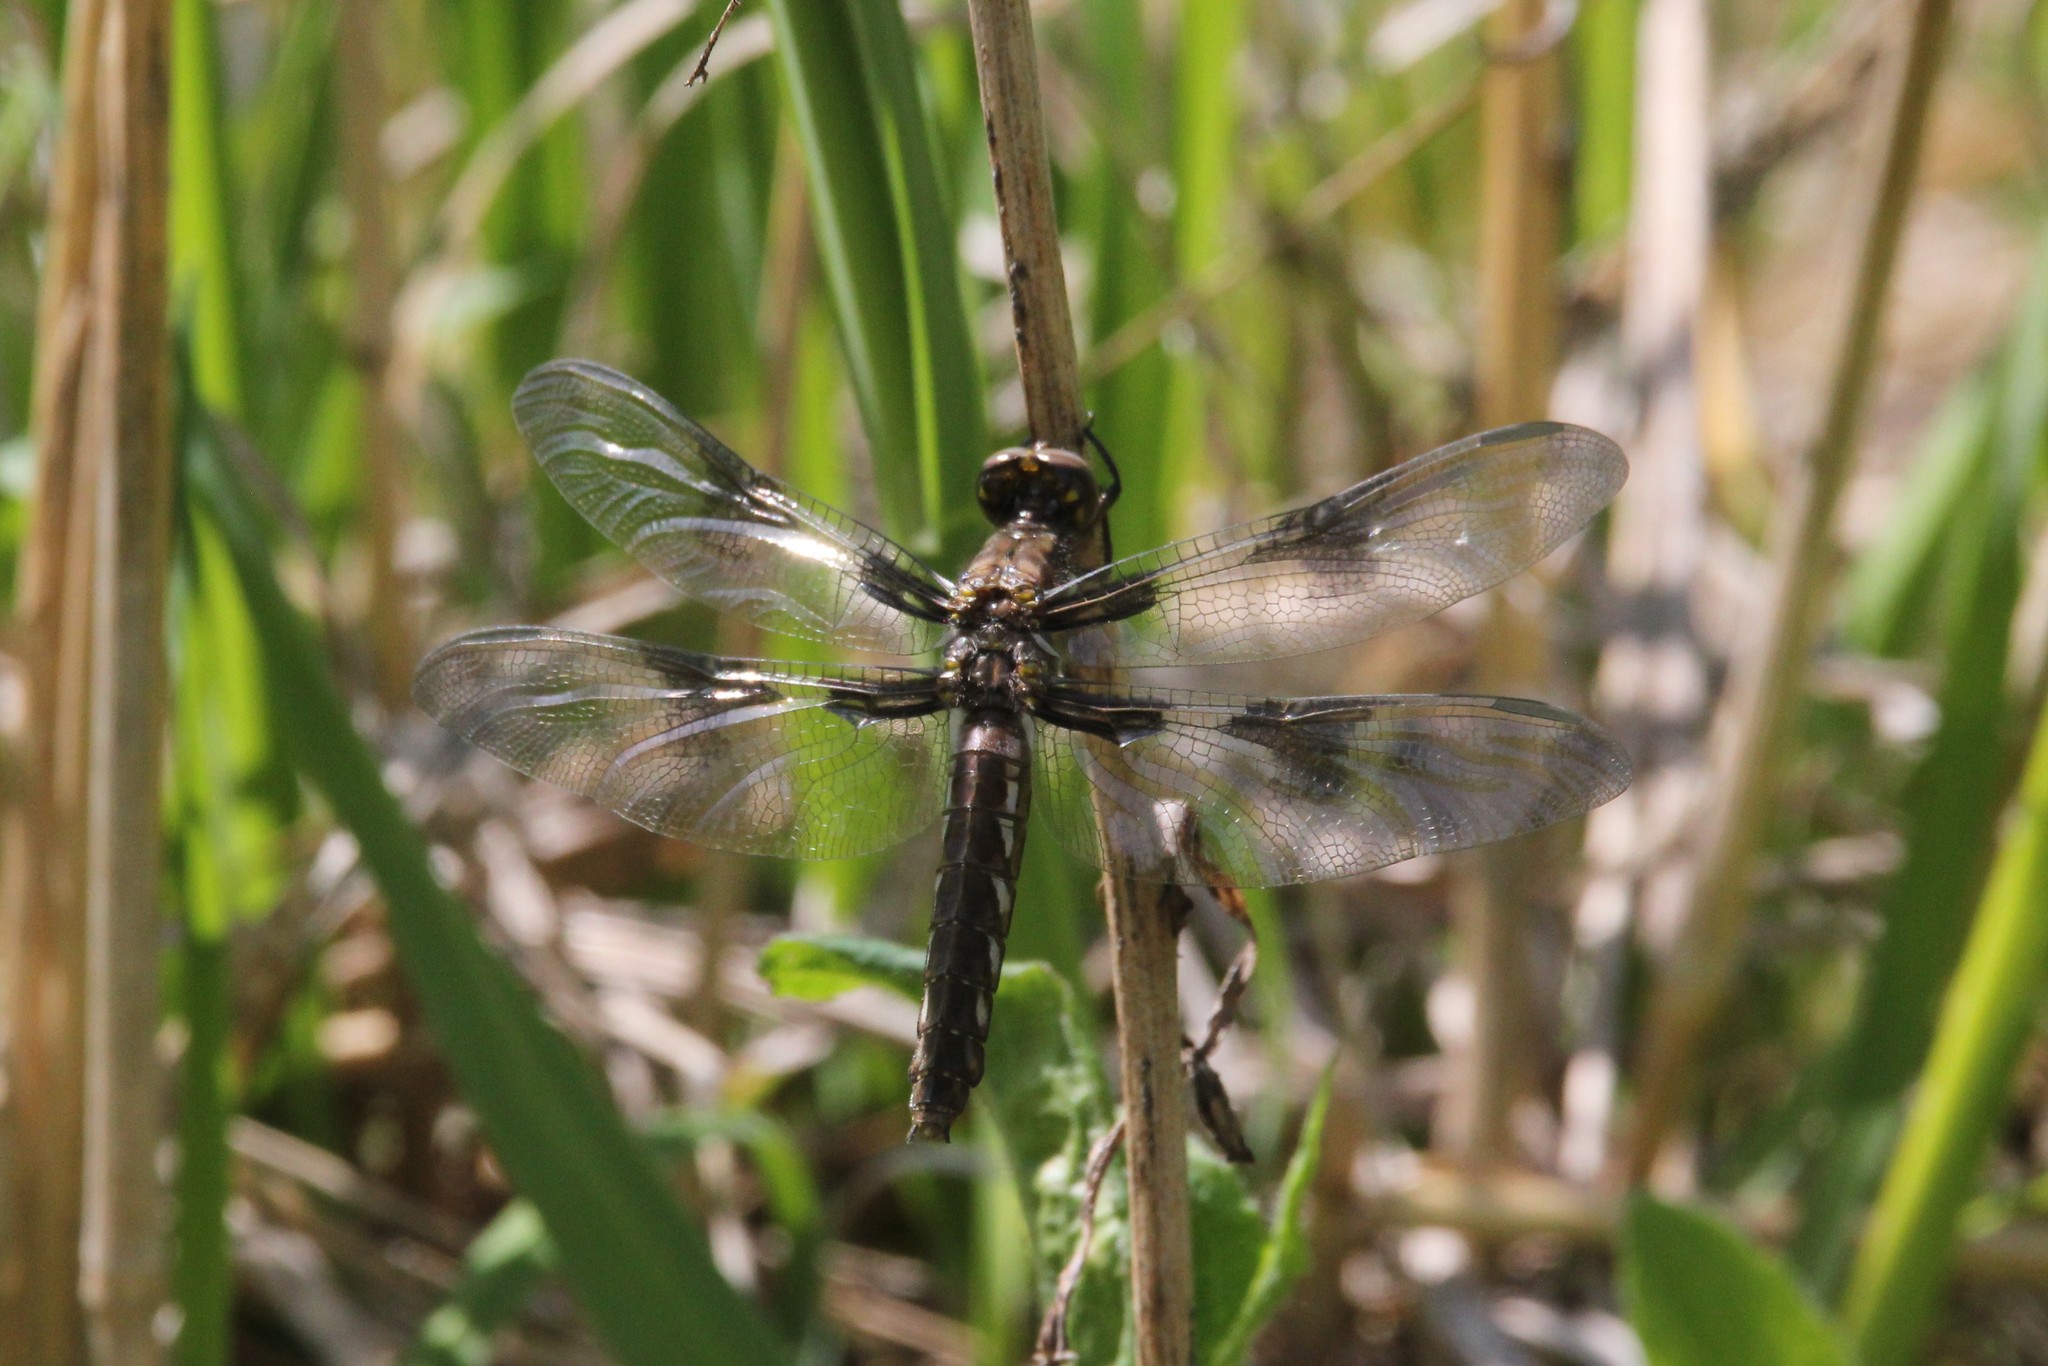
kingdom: Animalia
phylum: Arthropoda
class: Insecta
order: Odonata
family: Libellulidae
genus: Plathemis
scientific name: Plathemis lydia
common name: Common whitetail
